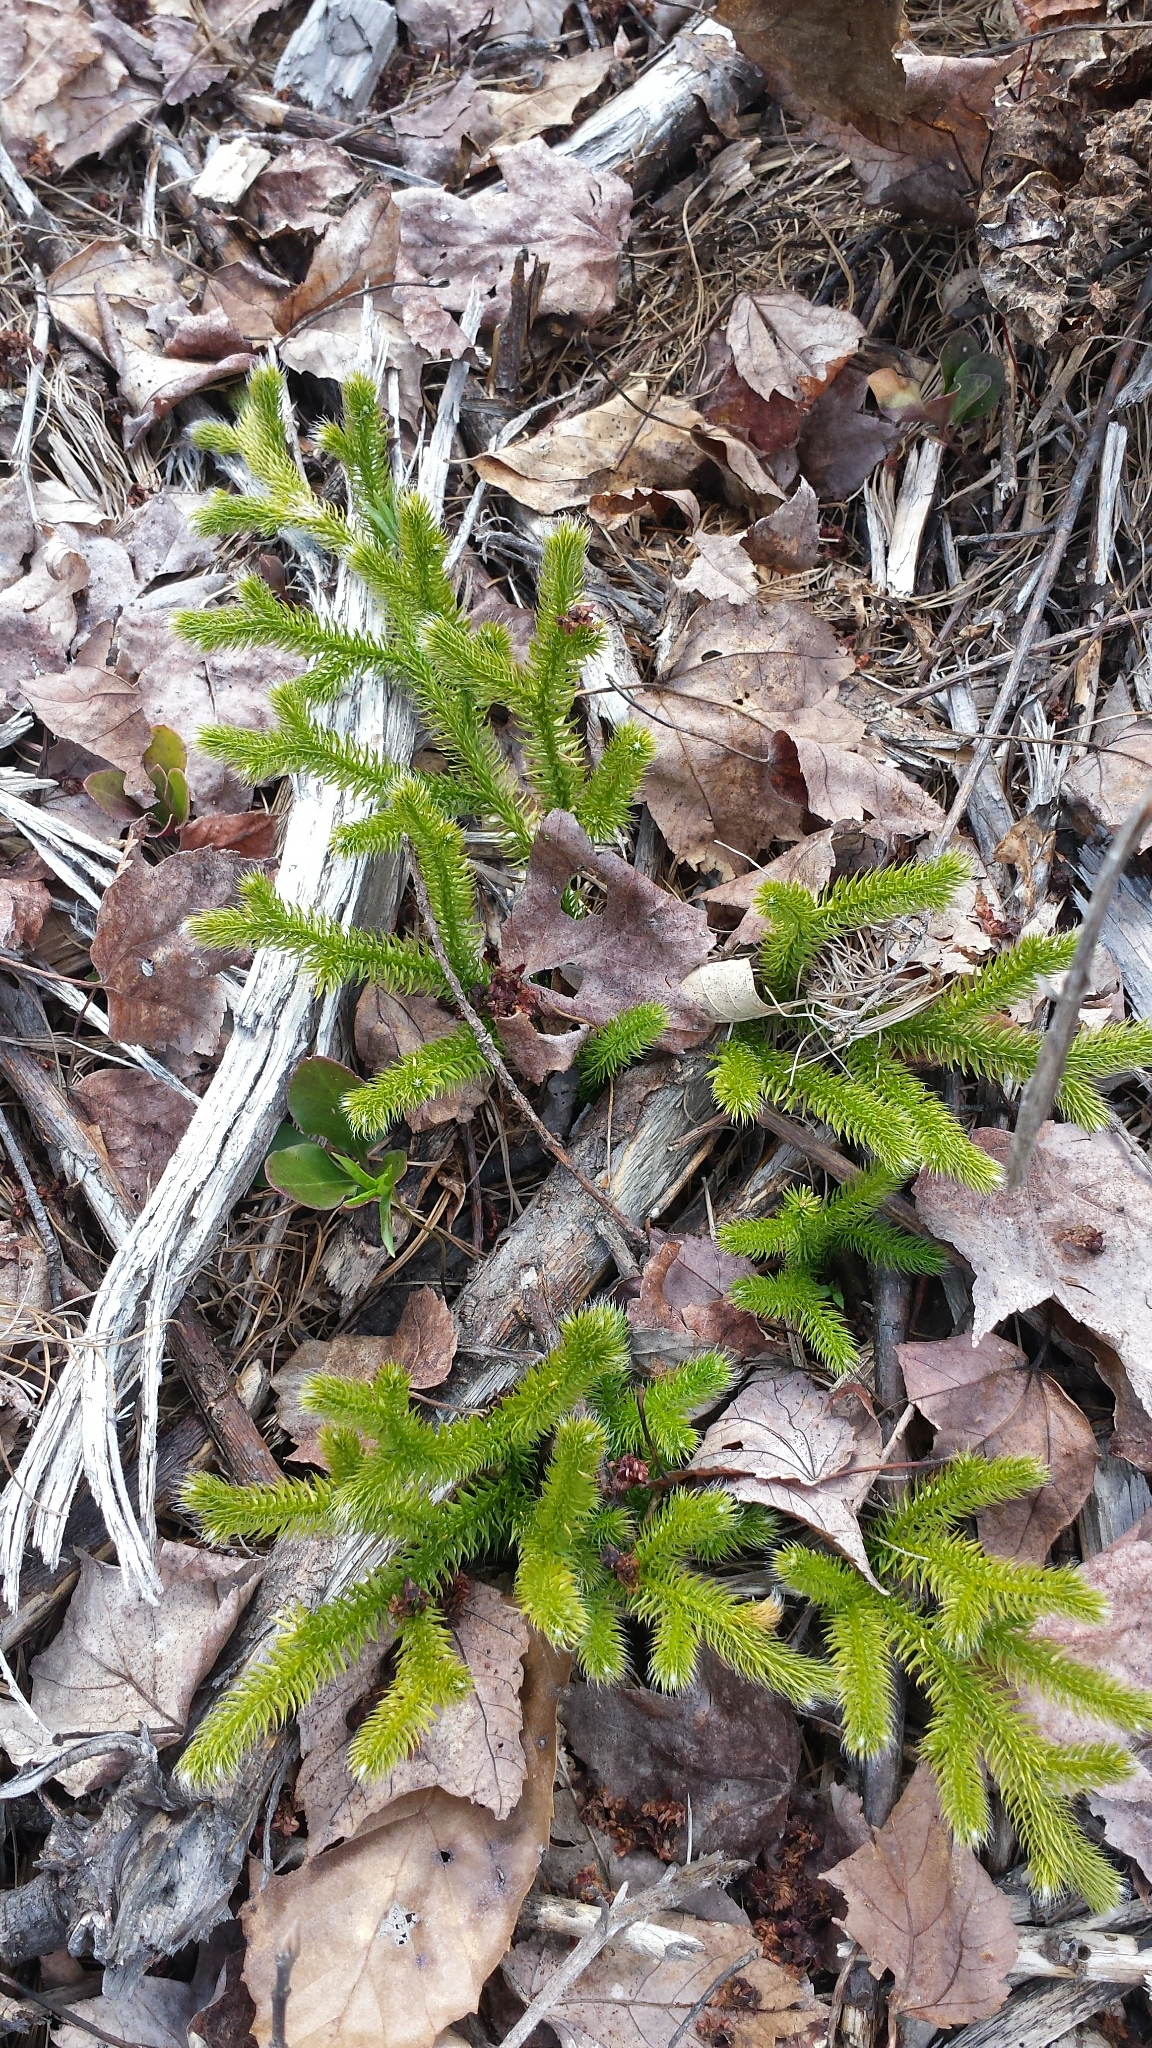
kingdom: Plantae
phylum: Tracheophyta
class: Lycopodiopsida
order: Lycopodiales
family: Lycopodiaceae
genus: Lycopodium
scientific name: Lycopodium clavatum
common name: Stag's-horn clubmoss
